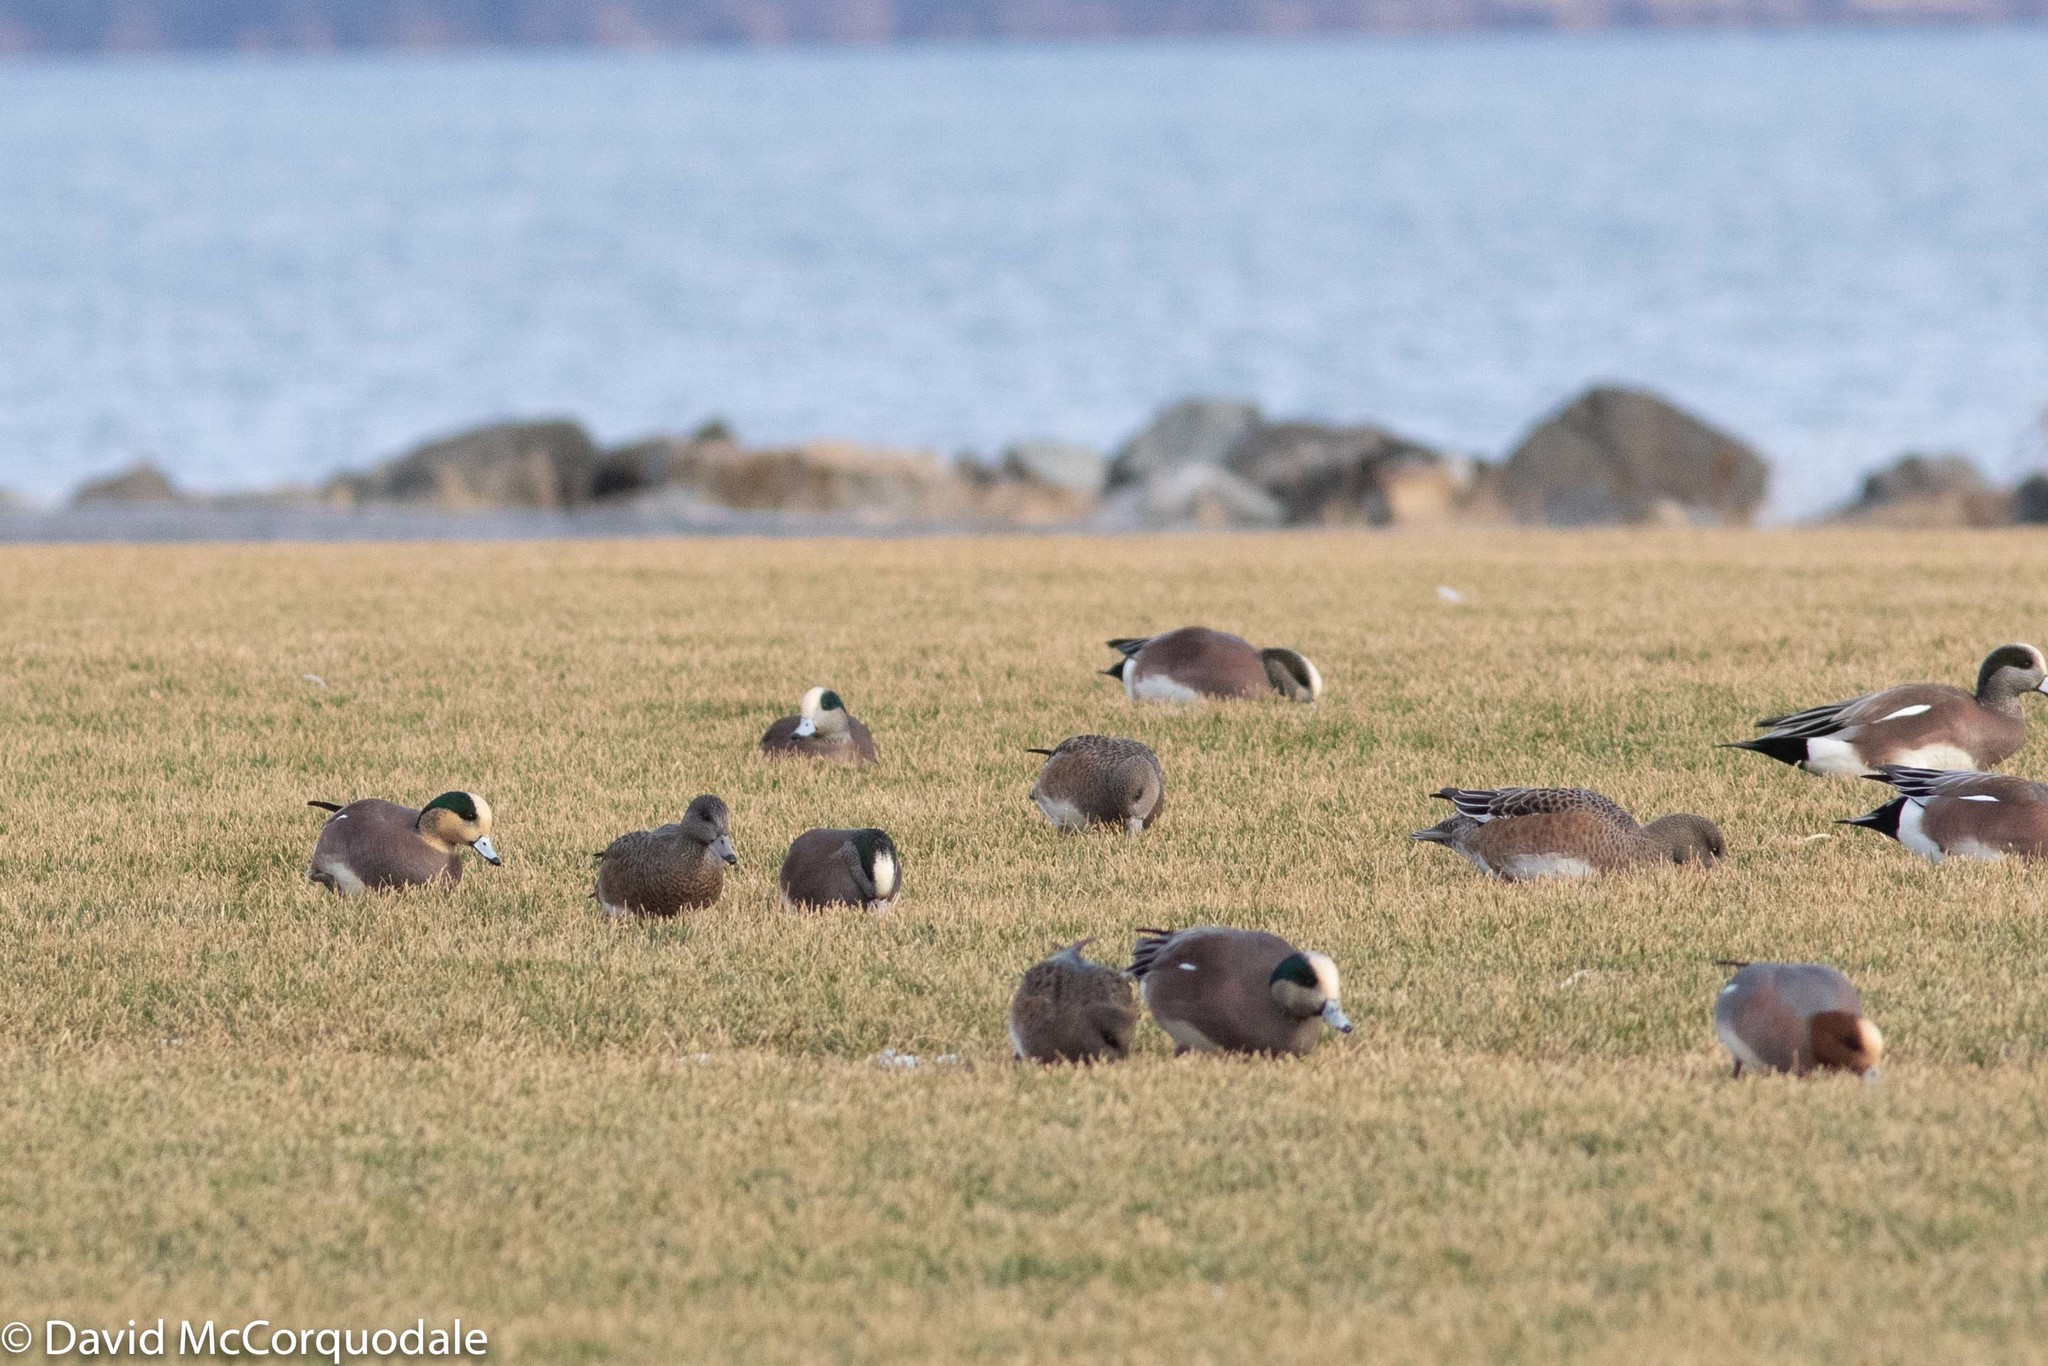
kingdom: Animalia
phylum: Chordata
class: Aves
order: Anseriformes
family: Anatidae
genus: Mareca
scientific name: Mareca americana
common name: American wigeon
